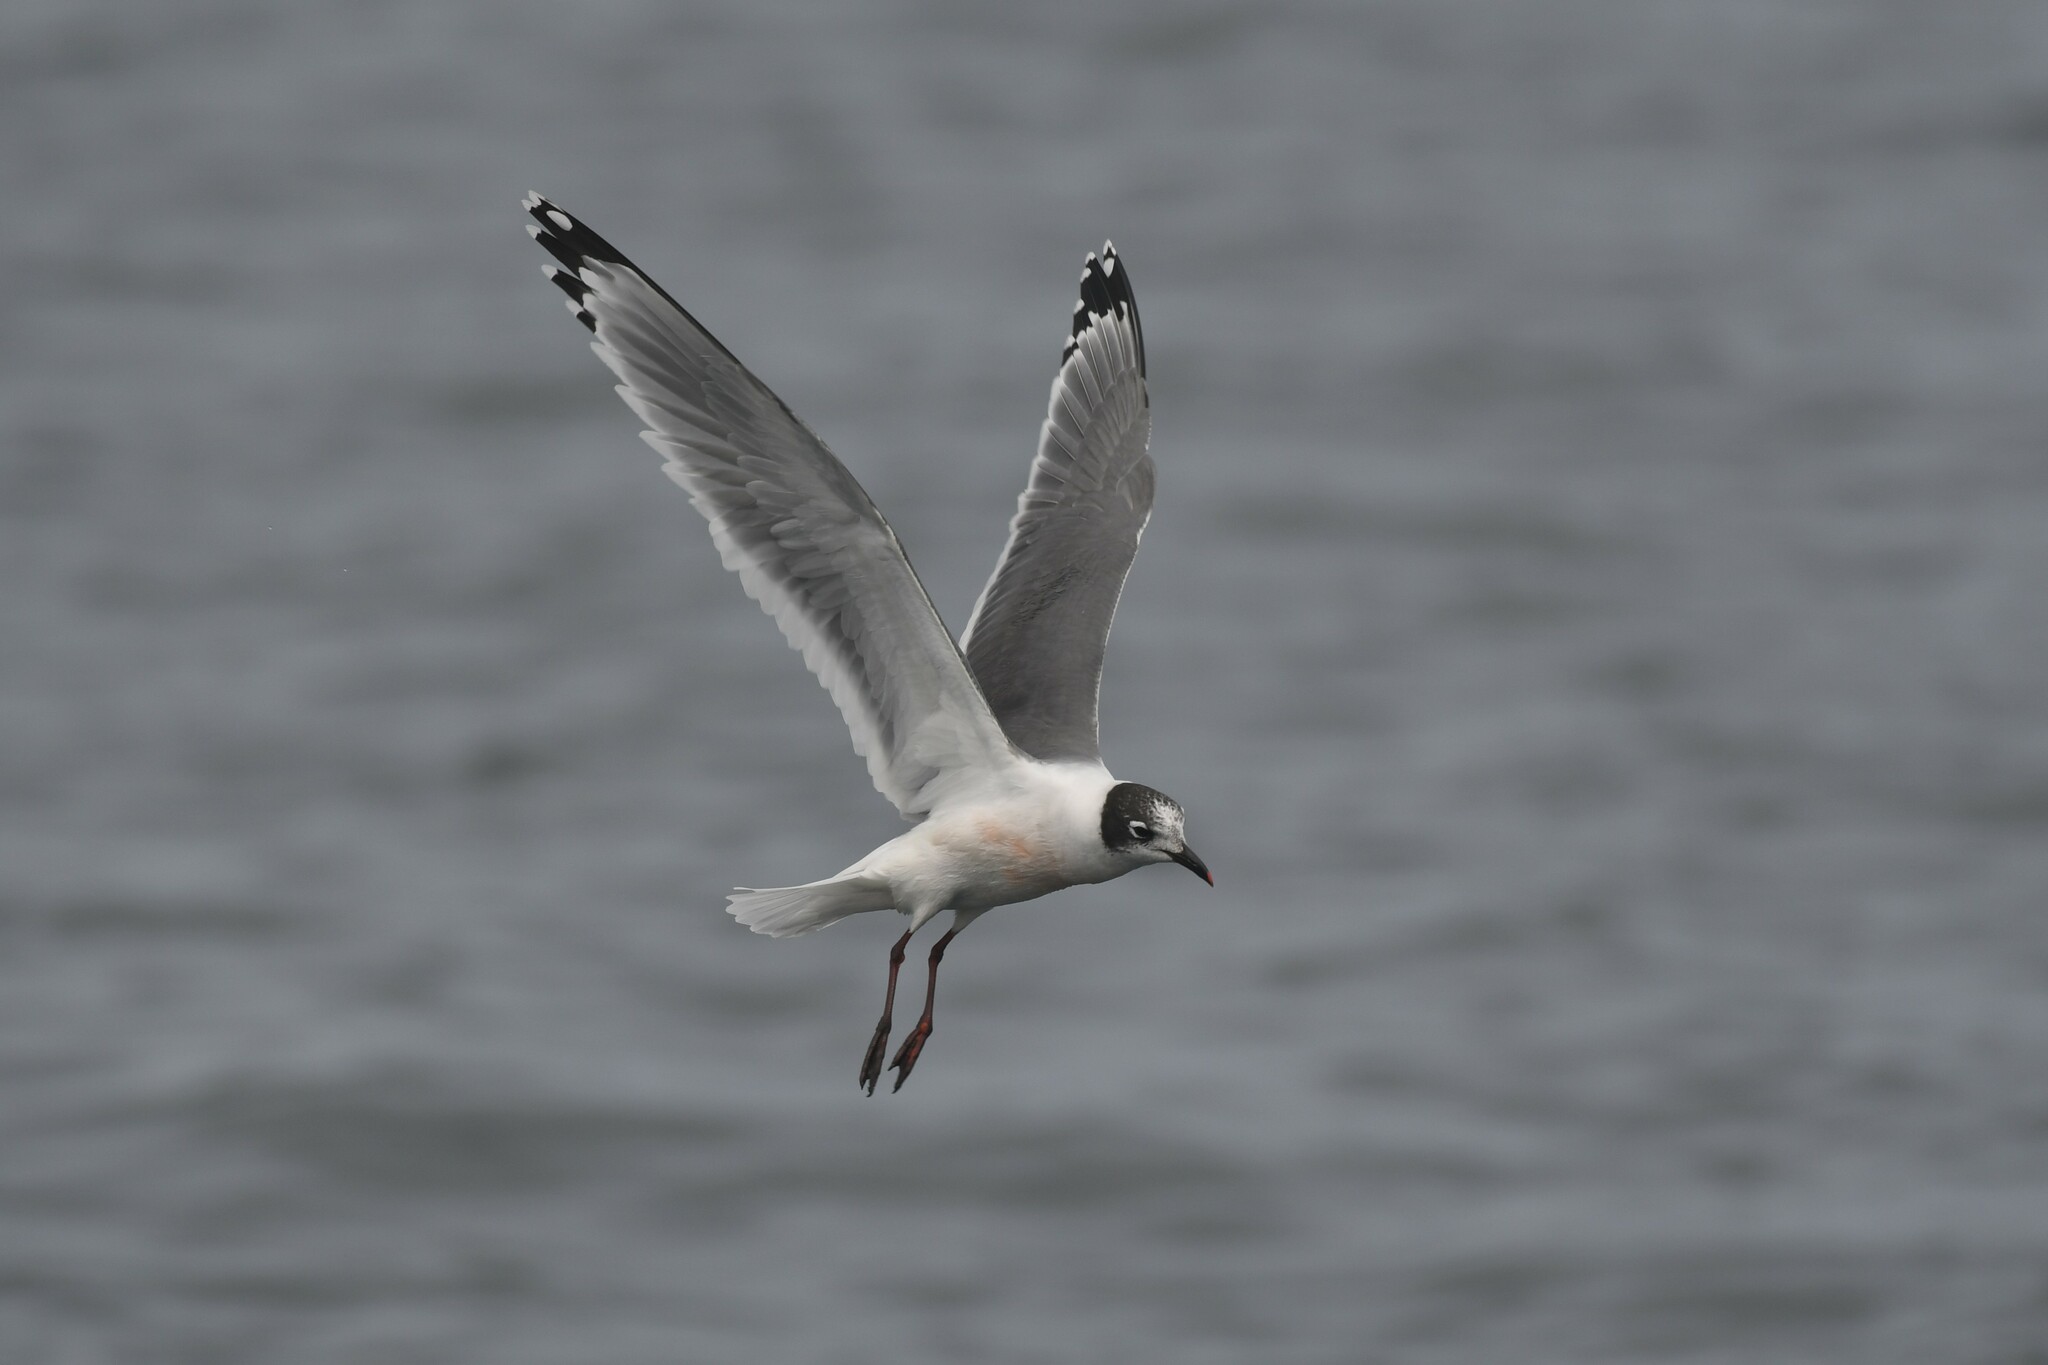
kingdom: Animalia
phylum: Chordata
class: Aves
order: Charadriiformes
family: Laridae
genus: Leucophaeus
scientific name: Leucophaeus pipixcan
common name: Franklin's gull
